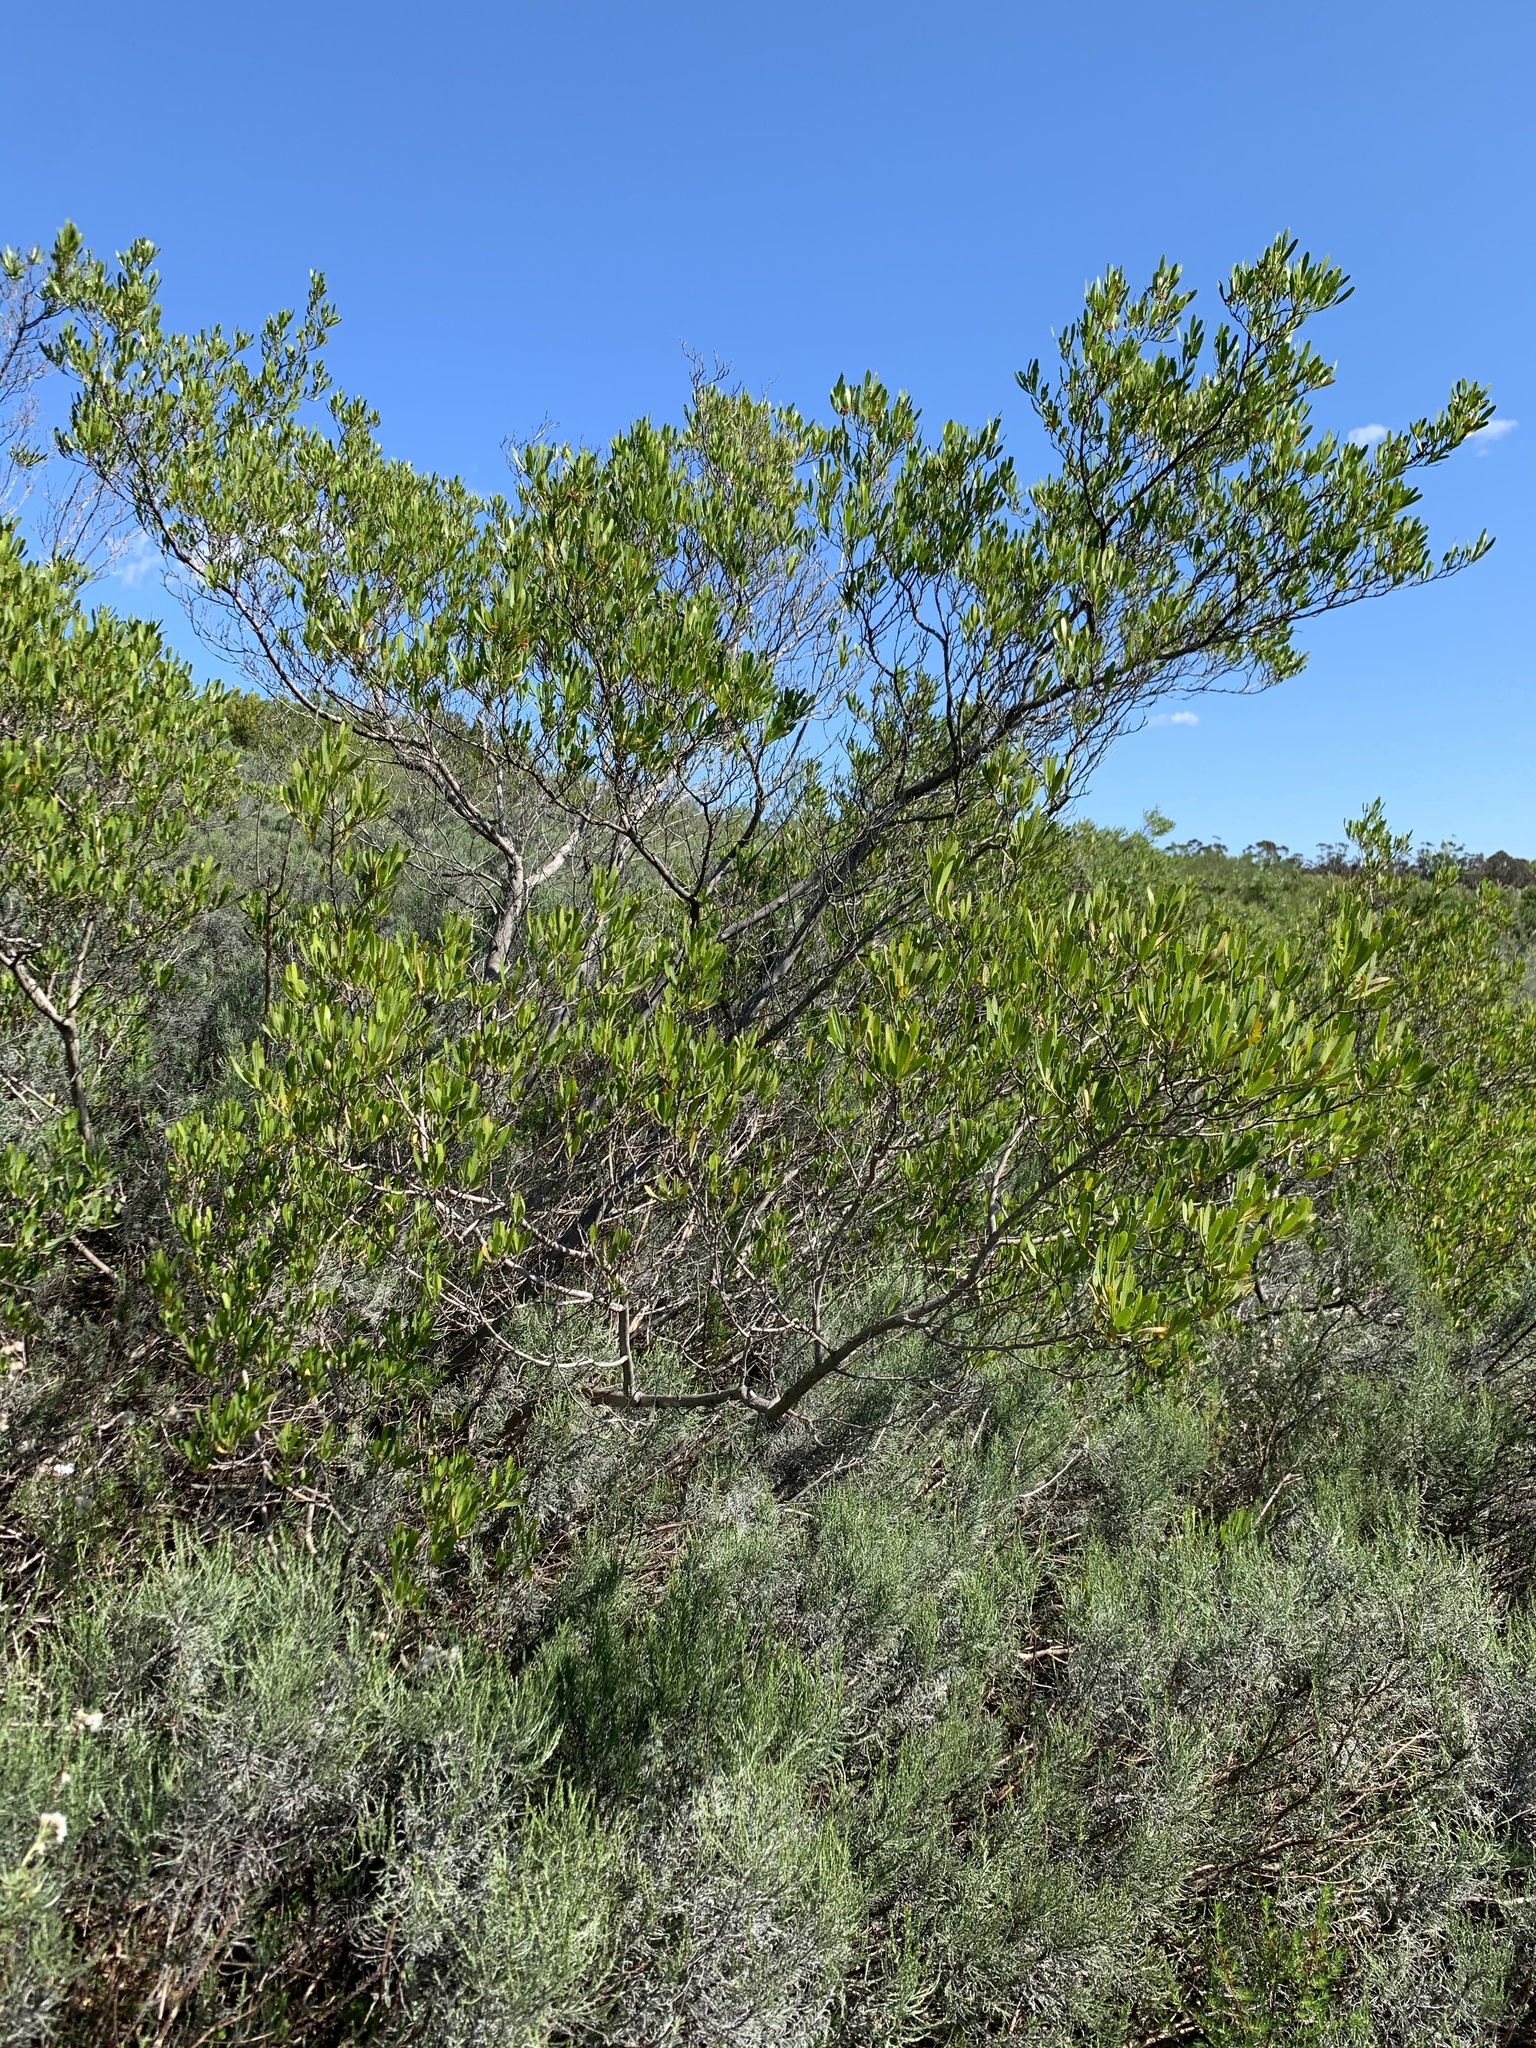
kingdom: Plantae
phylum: Tracheophyta
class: Magnoliopsida
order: Sapindales
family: Sapindaceae
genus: Dodonaea
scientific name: Dodonaea viscosa
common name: Hopbush
